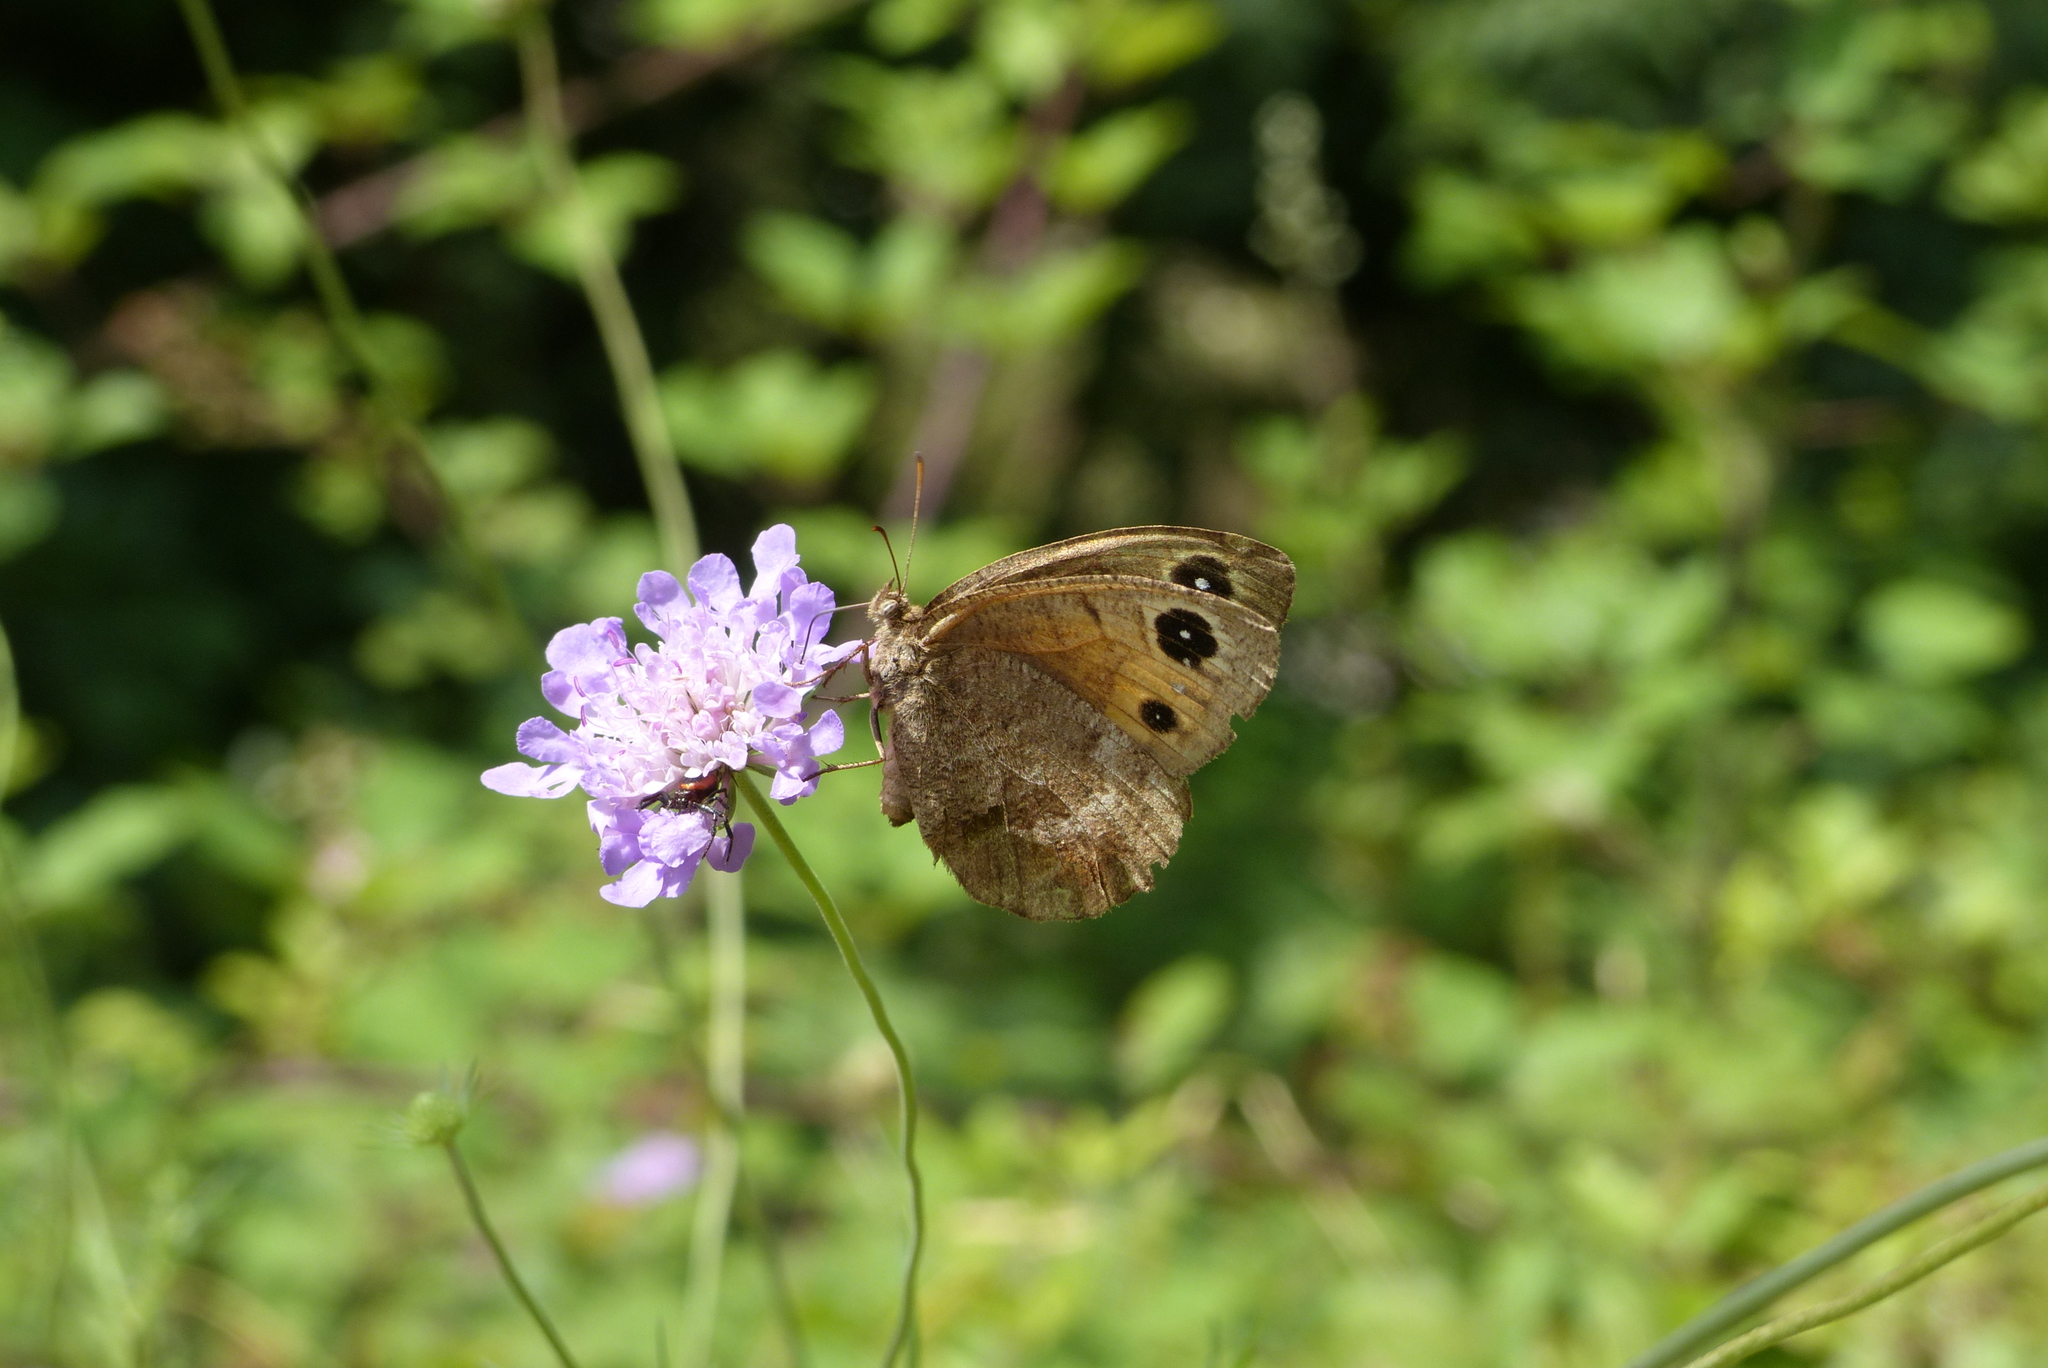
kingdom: Animalia
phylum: Arthropoda
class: Insecta
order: Lepidoptera
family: Nymphalidae
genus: Satyrus
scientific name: Satyrus ferula
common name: Great sooty satyr
